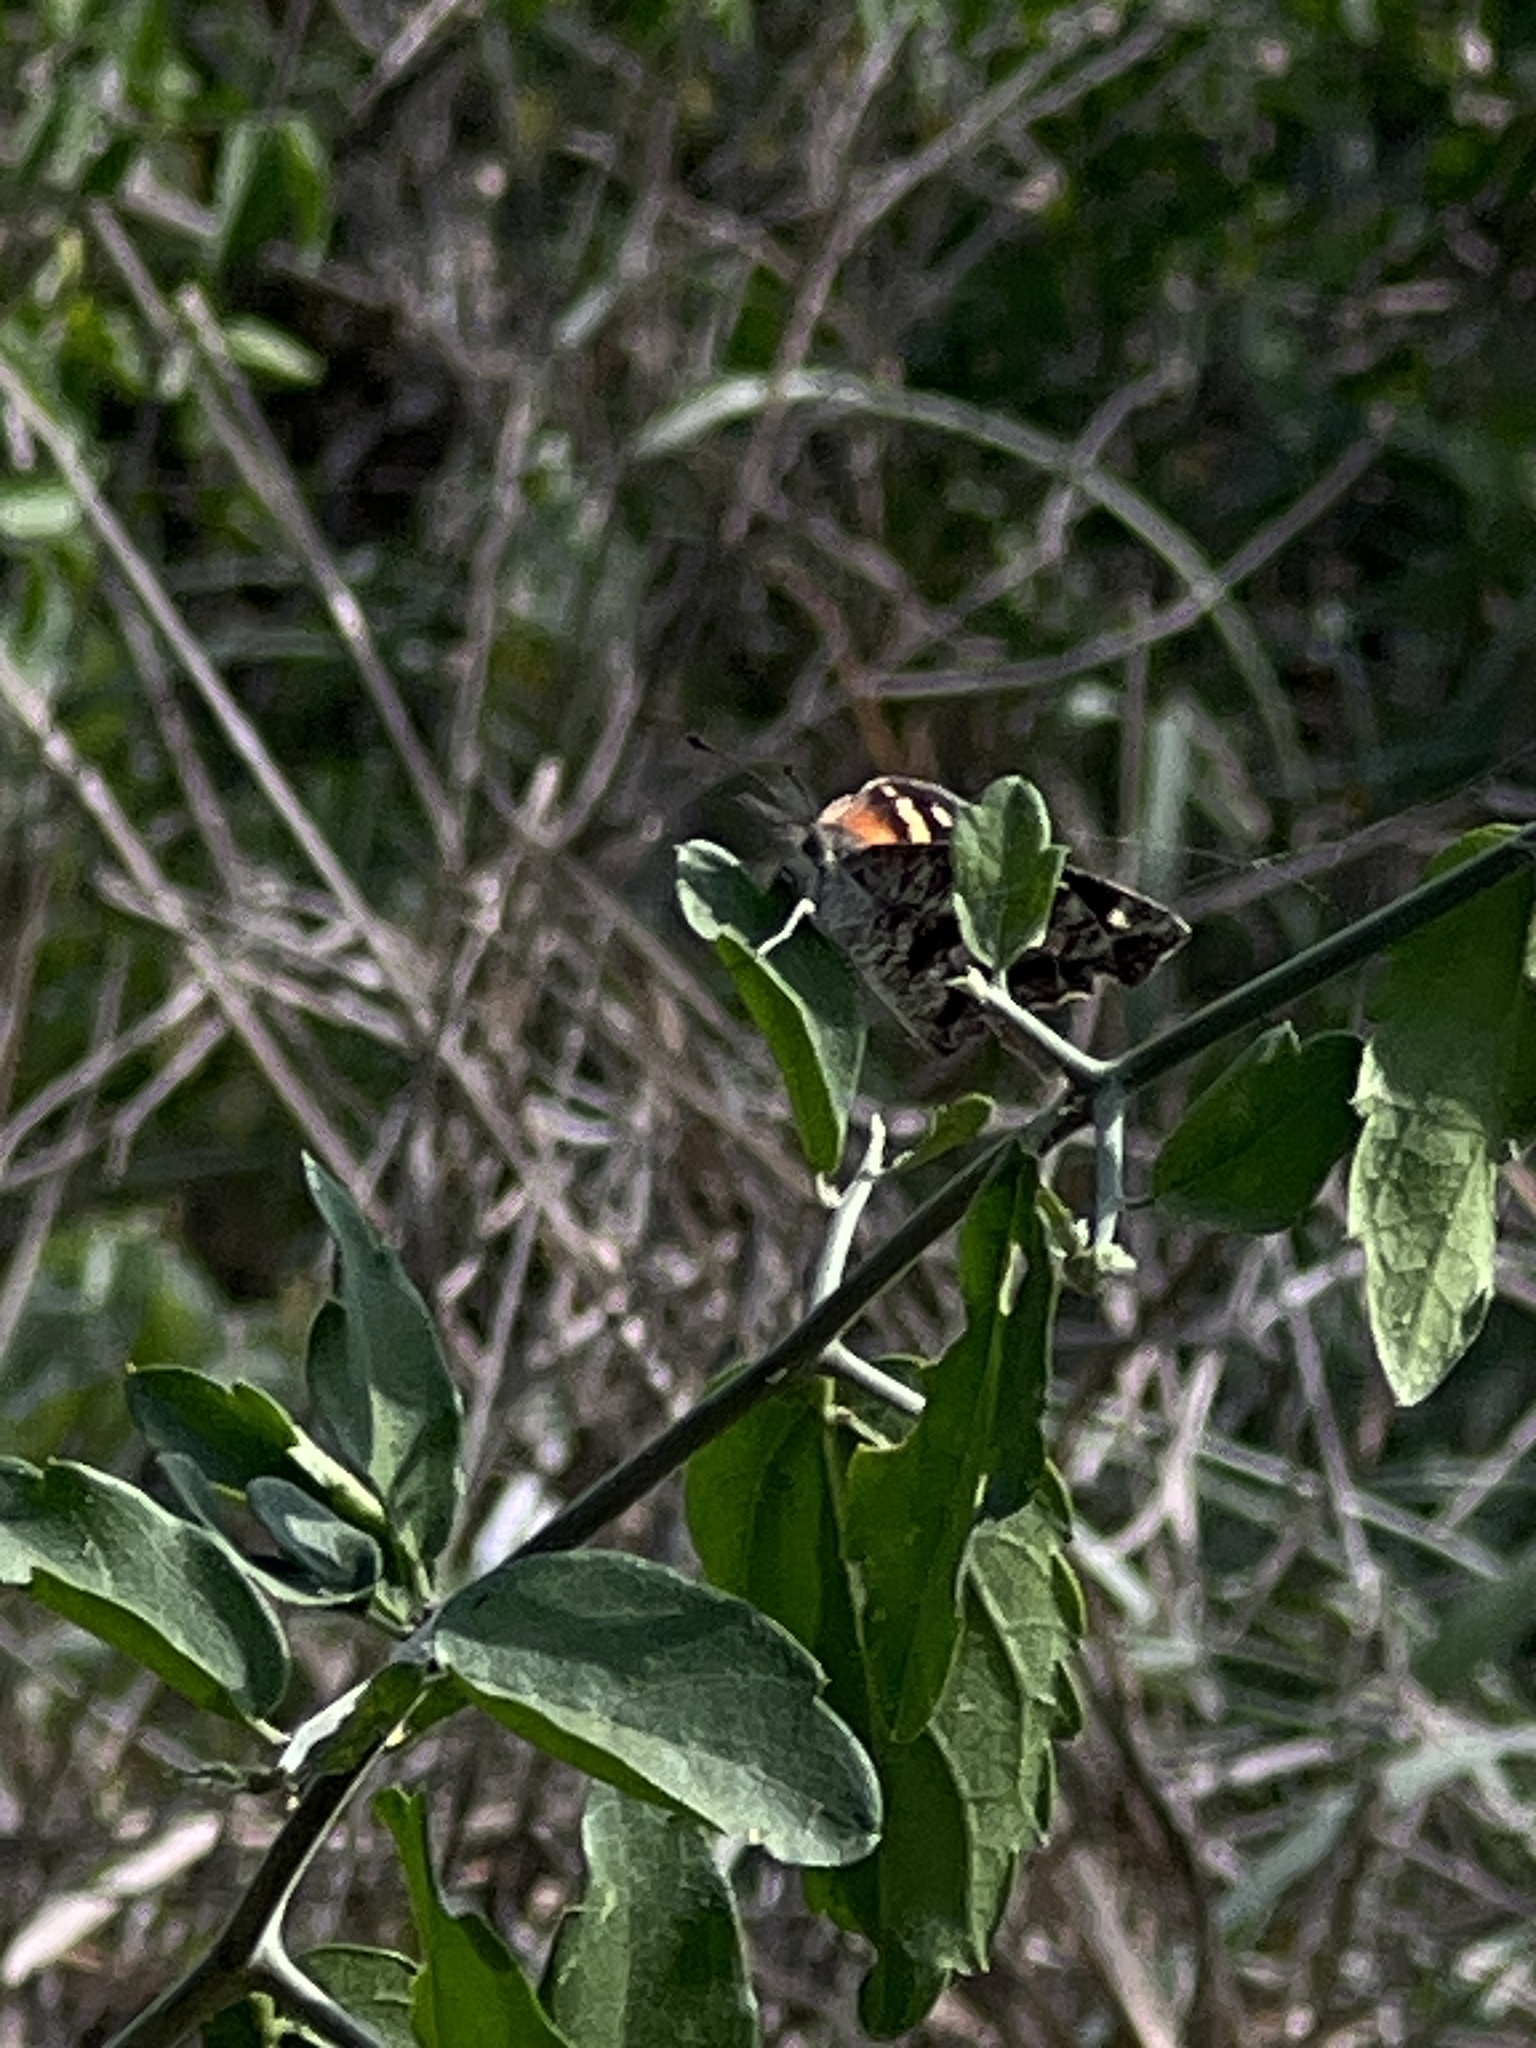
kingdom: Animalia
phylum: Arthropoda
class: Insecta
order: Lepidoptera
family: Nymphalidae
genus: Libytheana
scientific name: Libytheana carinenta
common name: American snout
